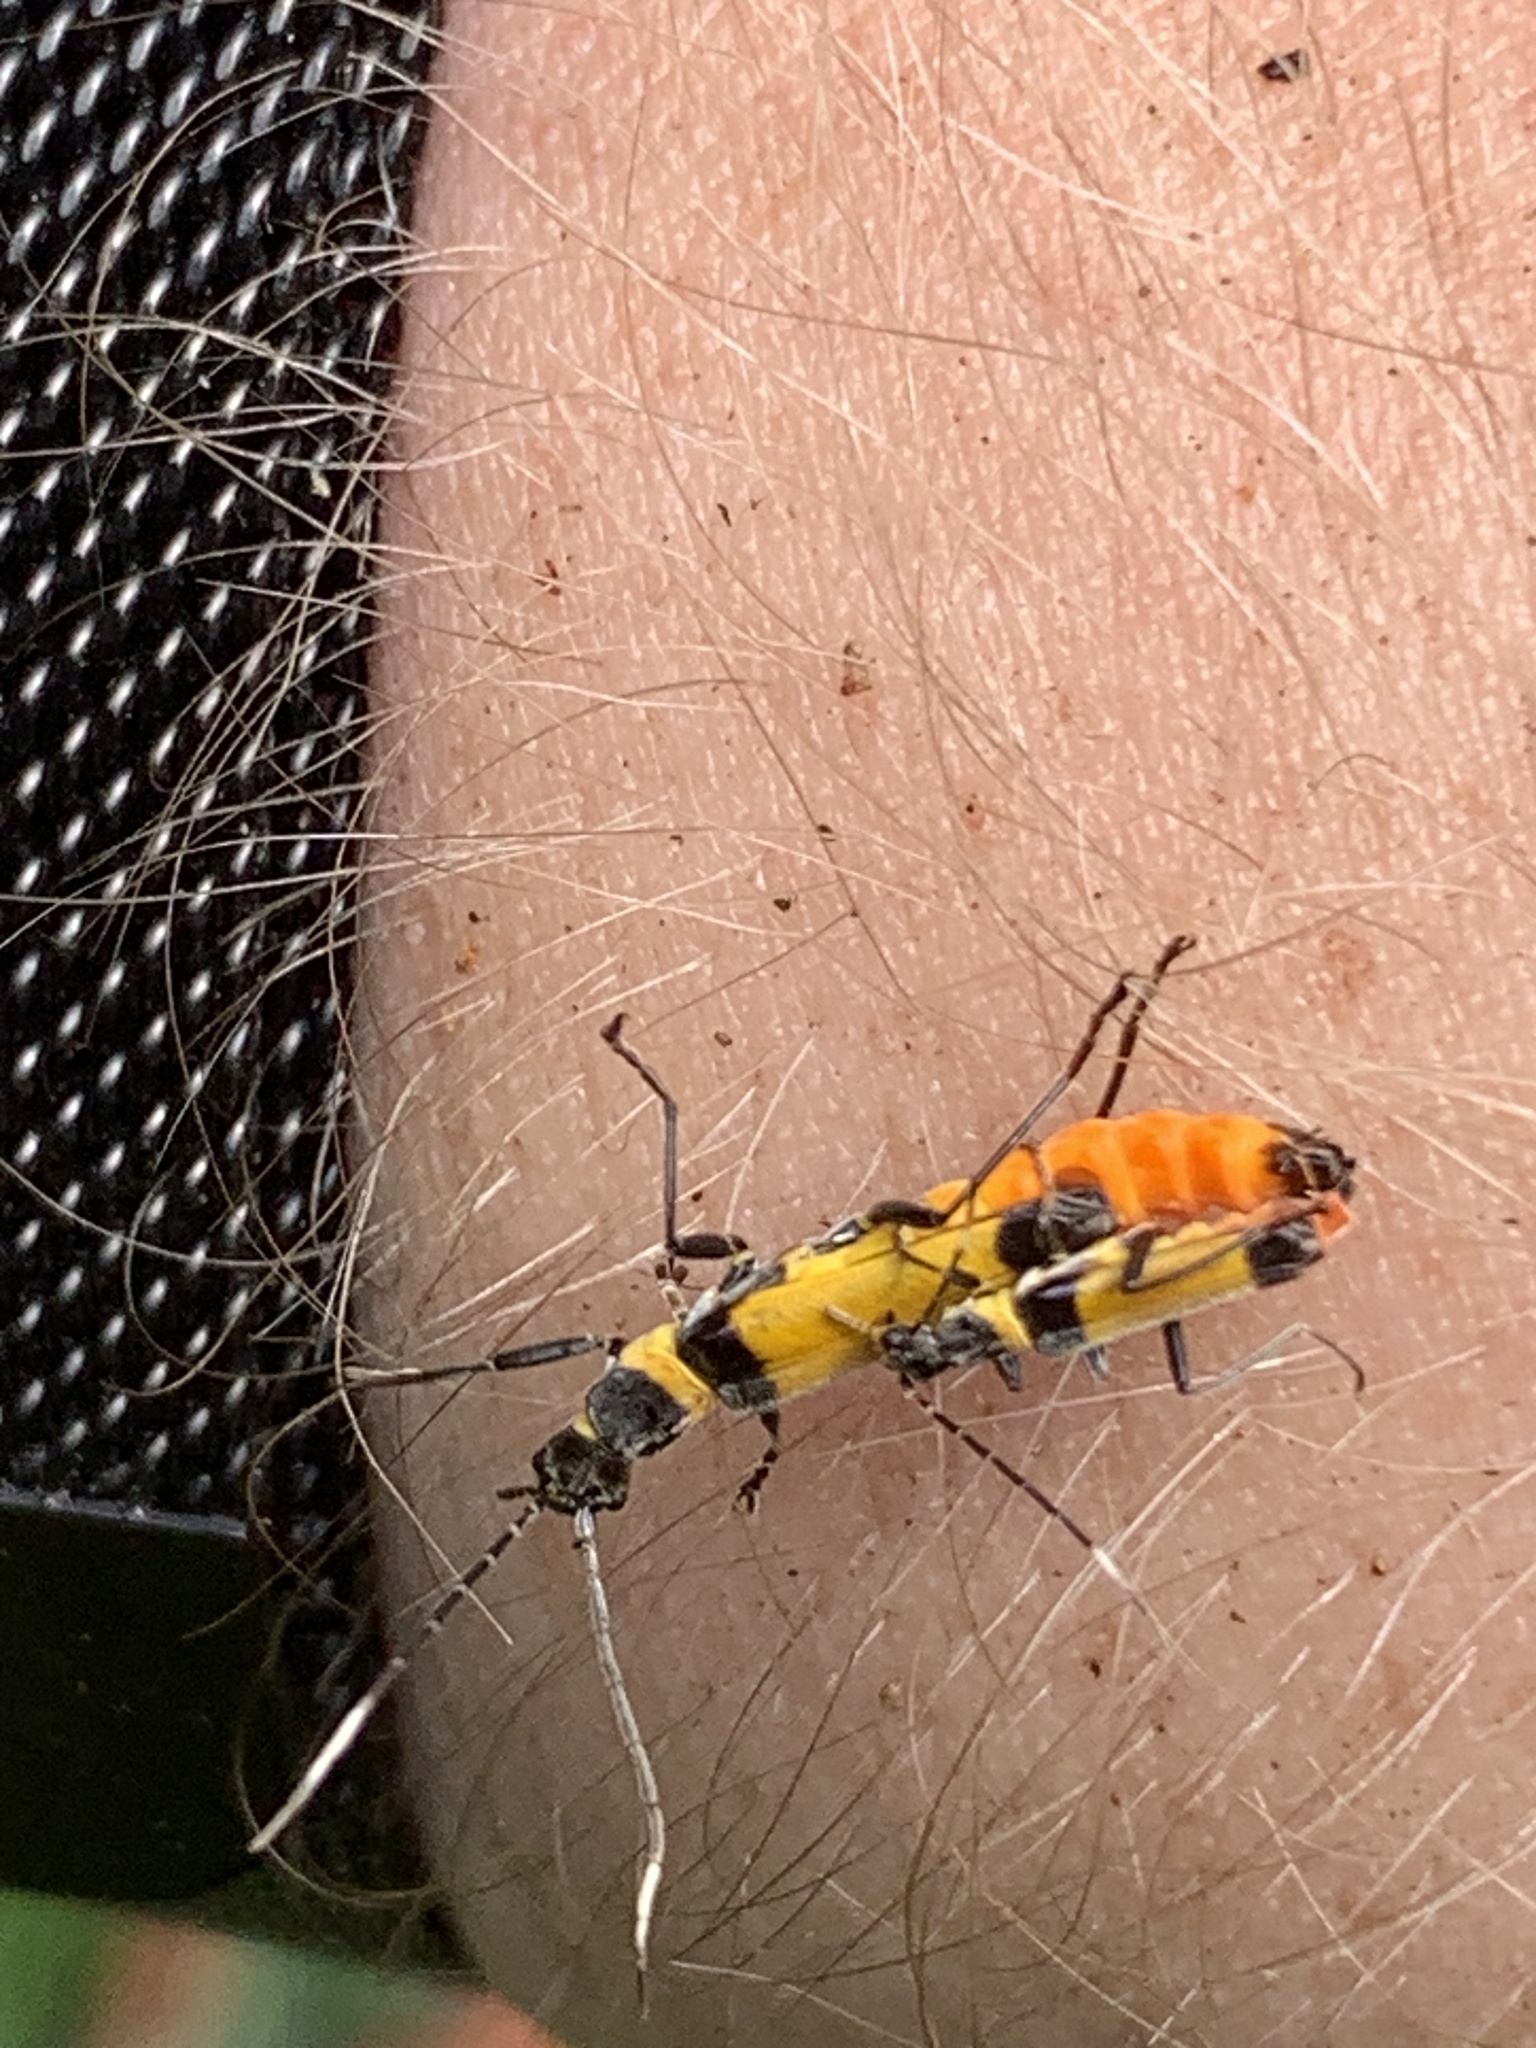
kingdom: Animalia
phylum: Arthropoda
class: Insecta
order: Coleoptera
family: Cantharidae
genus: Chauliognathus
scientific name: Chauliognathus
